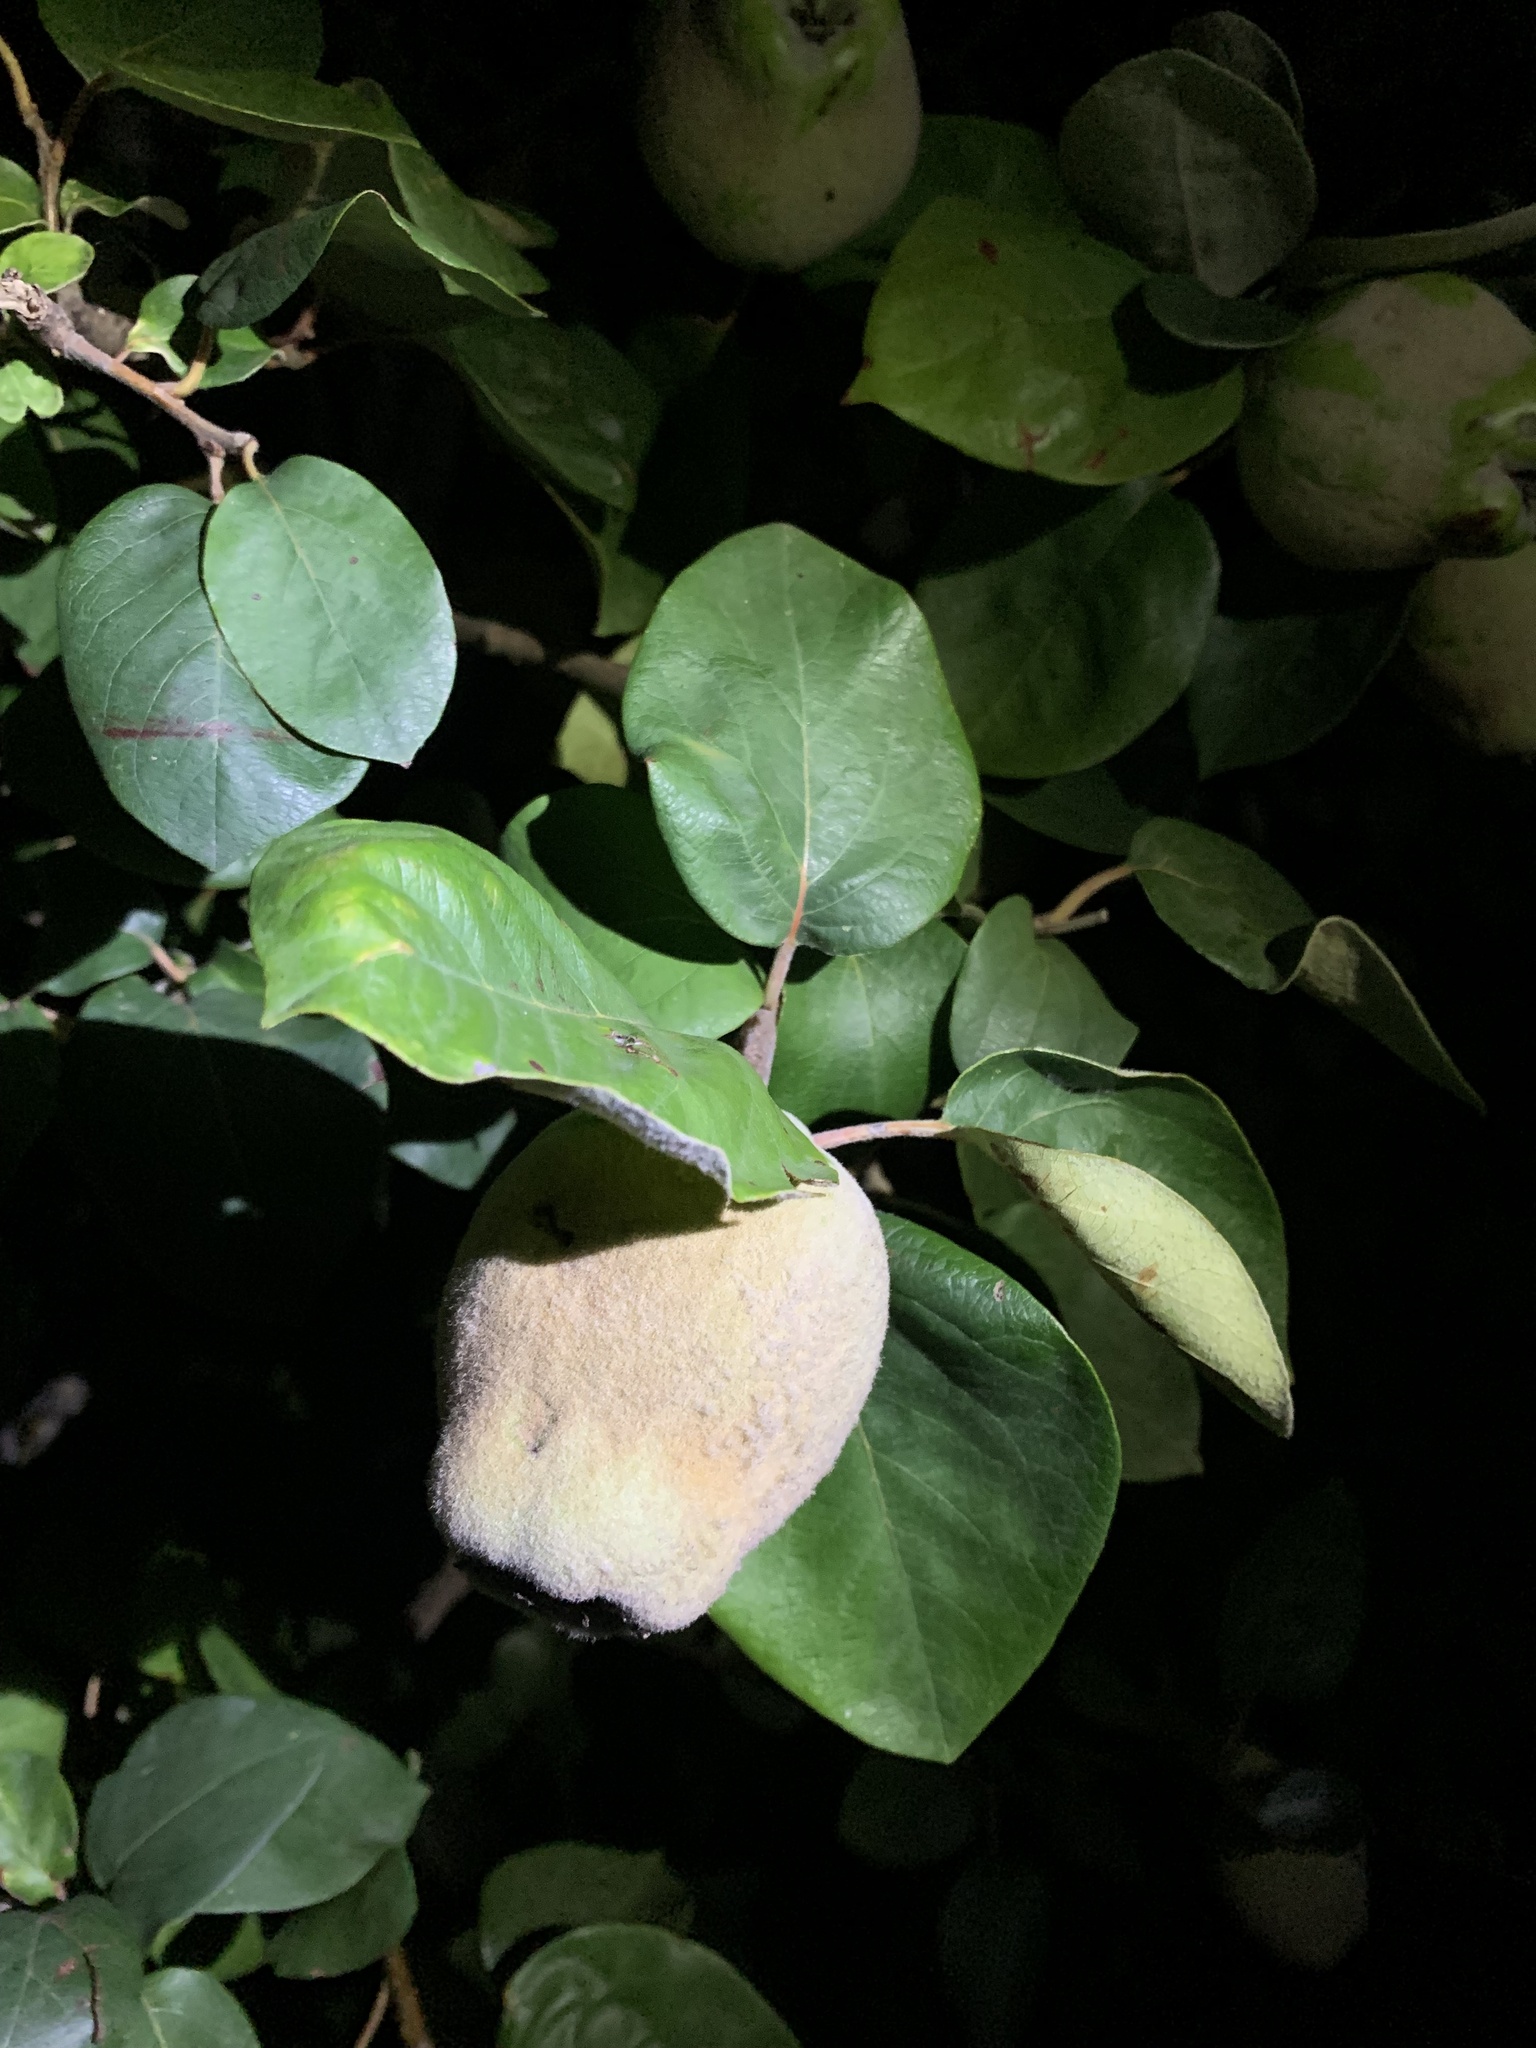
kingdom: Plantae
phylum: Tracheophyta
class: Magnoliopsida
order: Rosales
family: Rosaceae
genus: Cydonia
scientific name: Cydonia oblonga
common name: Quince
